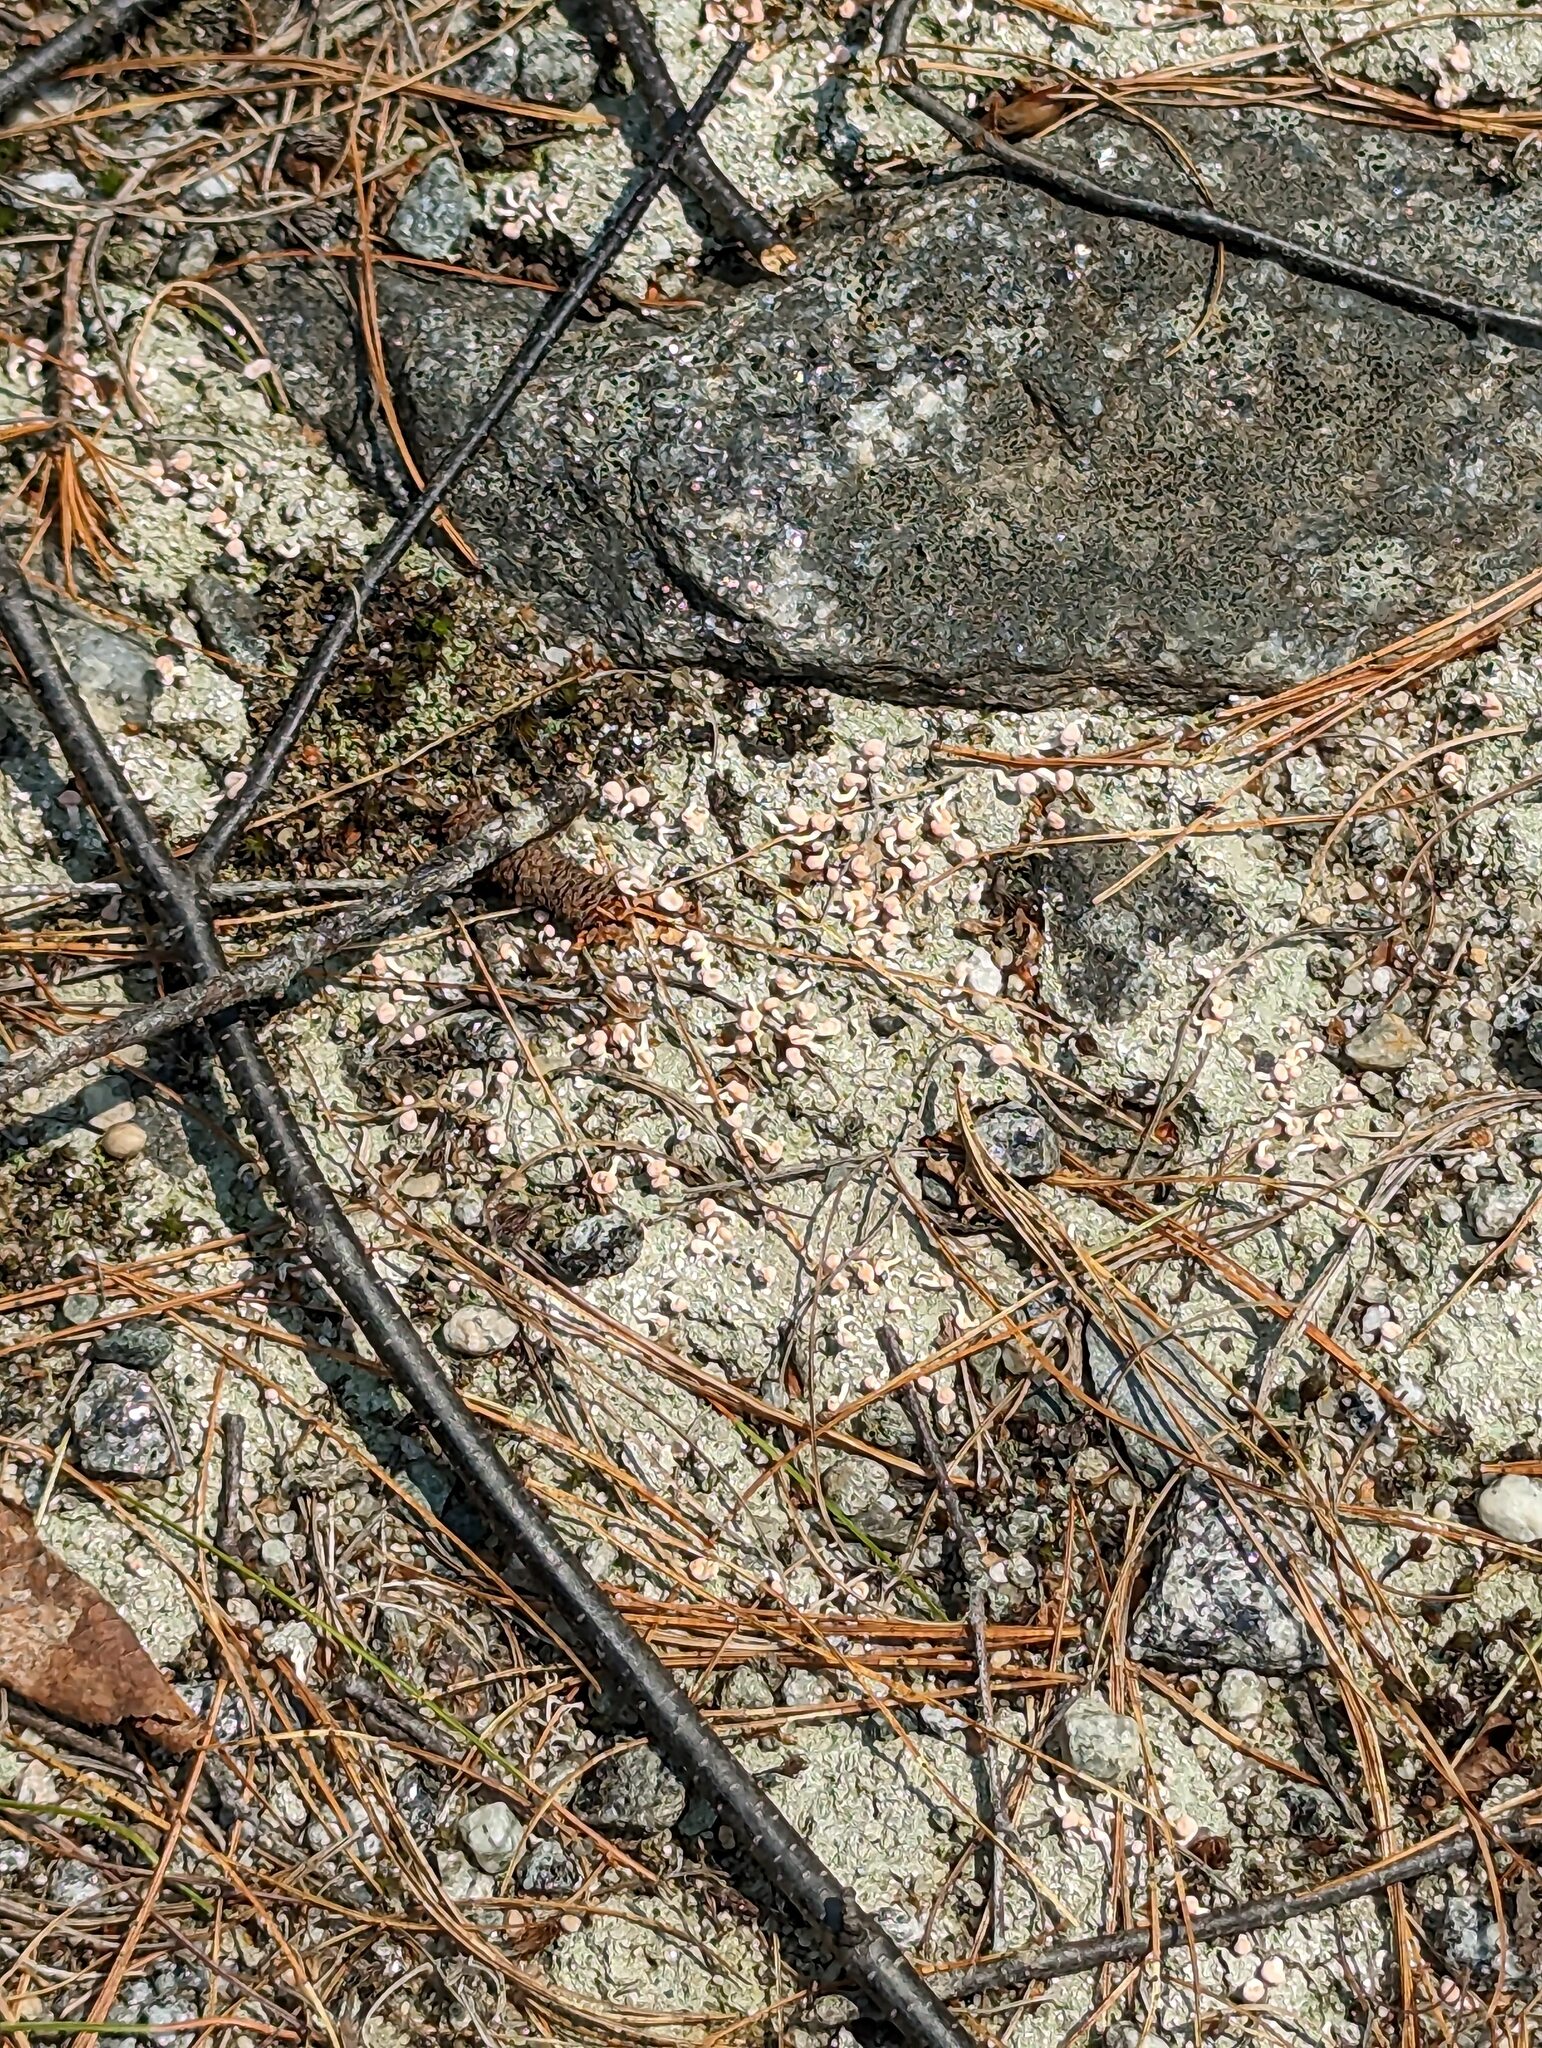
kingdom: Fungi
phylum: Ascomycota
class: Lecanoromycetes
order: Pertusariales
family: Icmadophilaceae
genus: Dibaeis
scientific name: Dibaeis baeomyces
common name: Pink earth lichen
